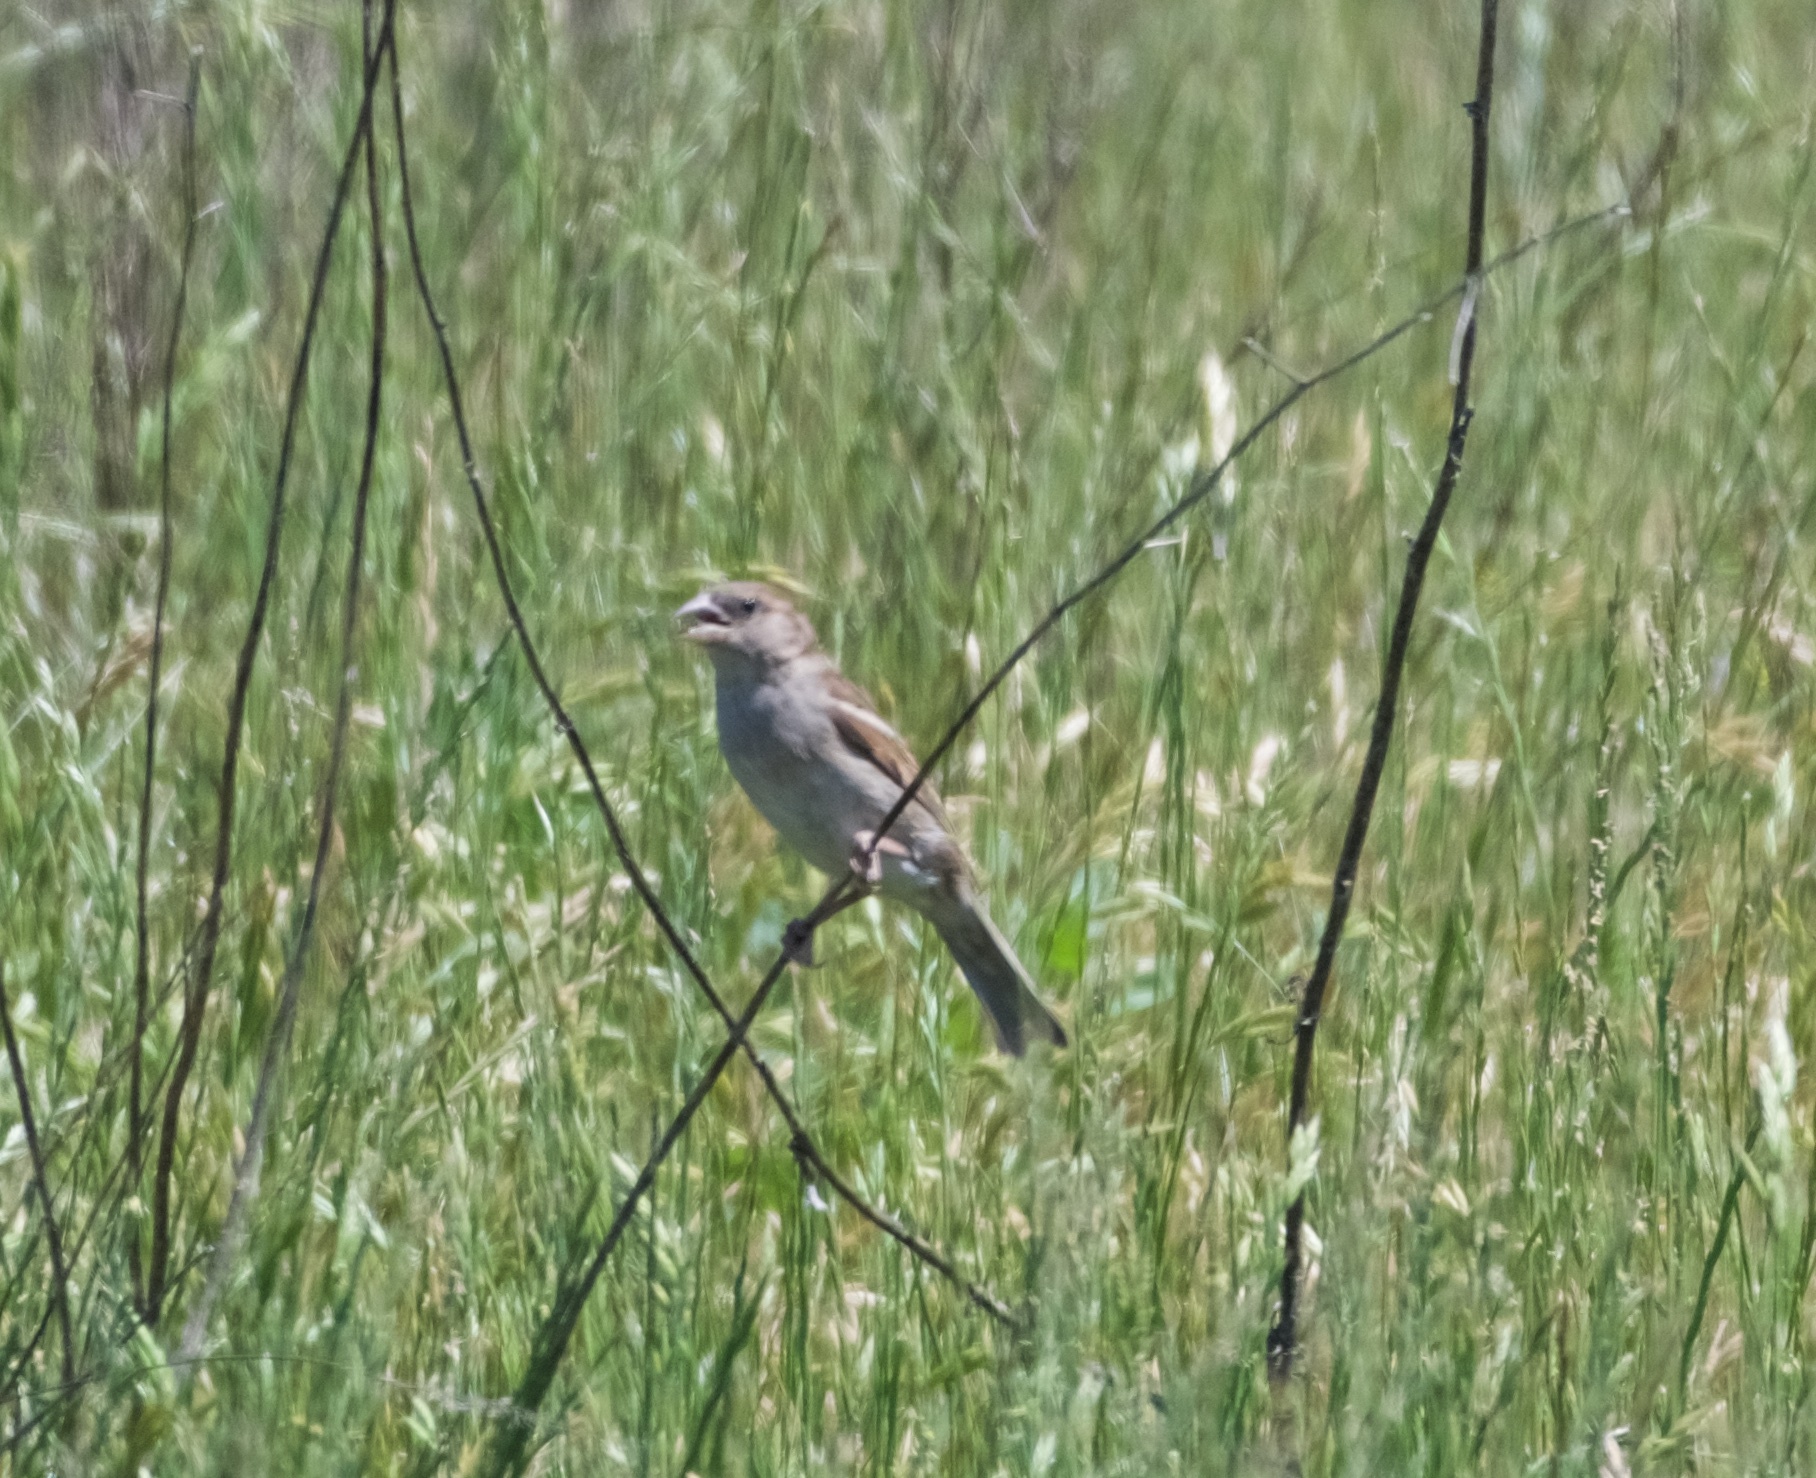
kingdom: Animalia
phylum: Chordata
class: Aves
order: Passeriformes
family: Passeridae
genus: Passer
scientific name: Passer domesticus
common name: House sparrow
